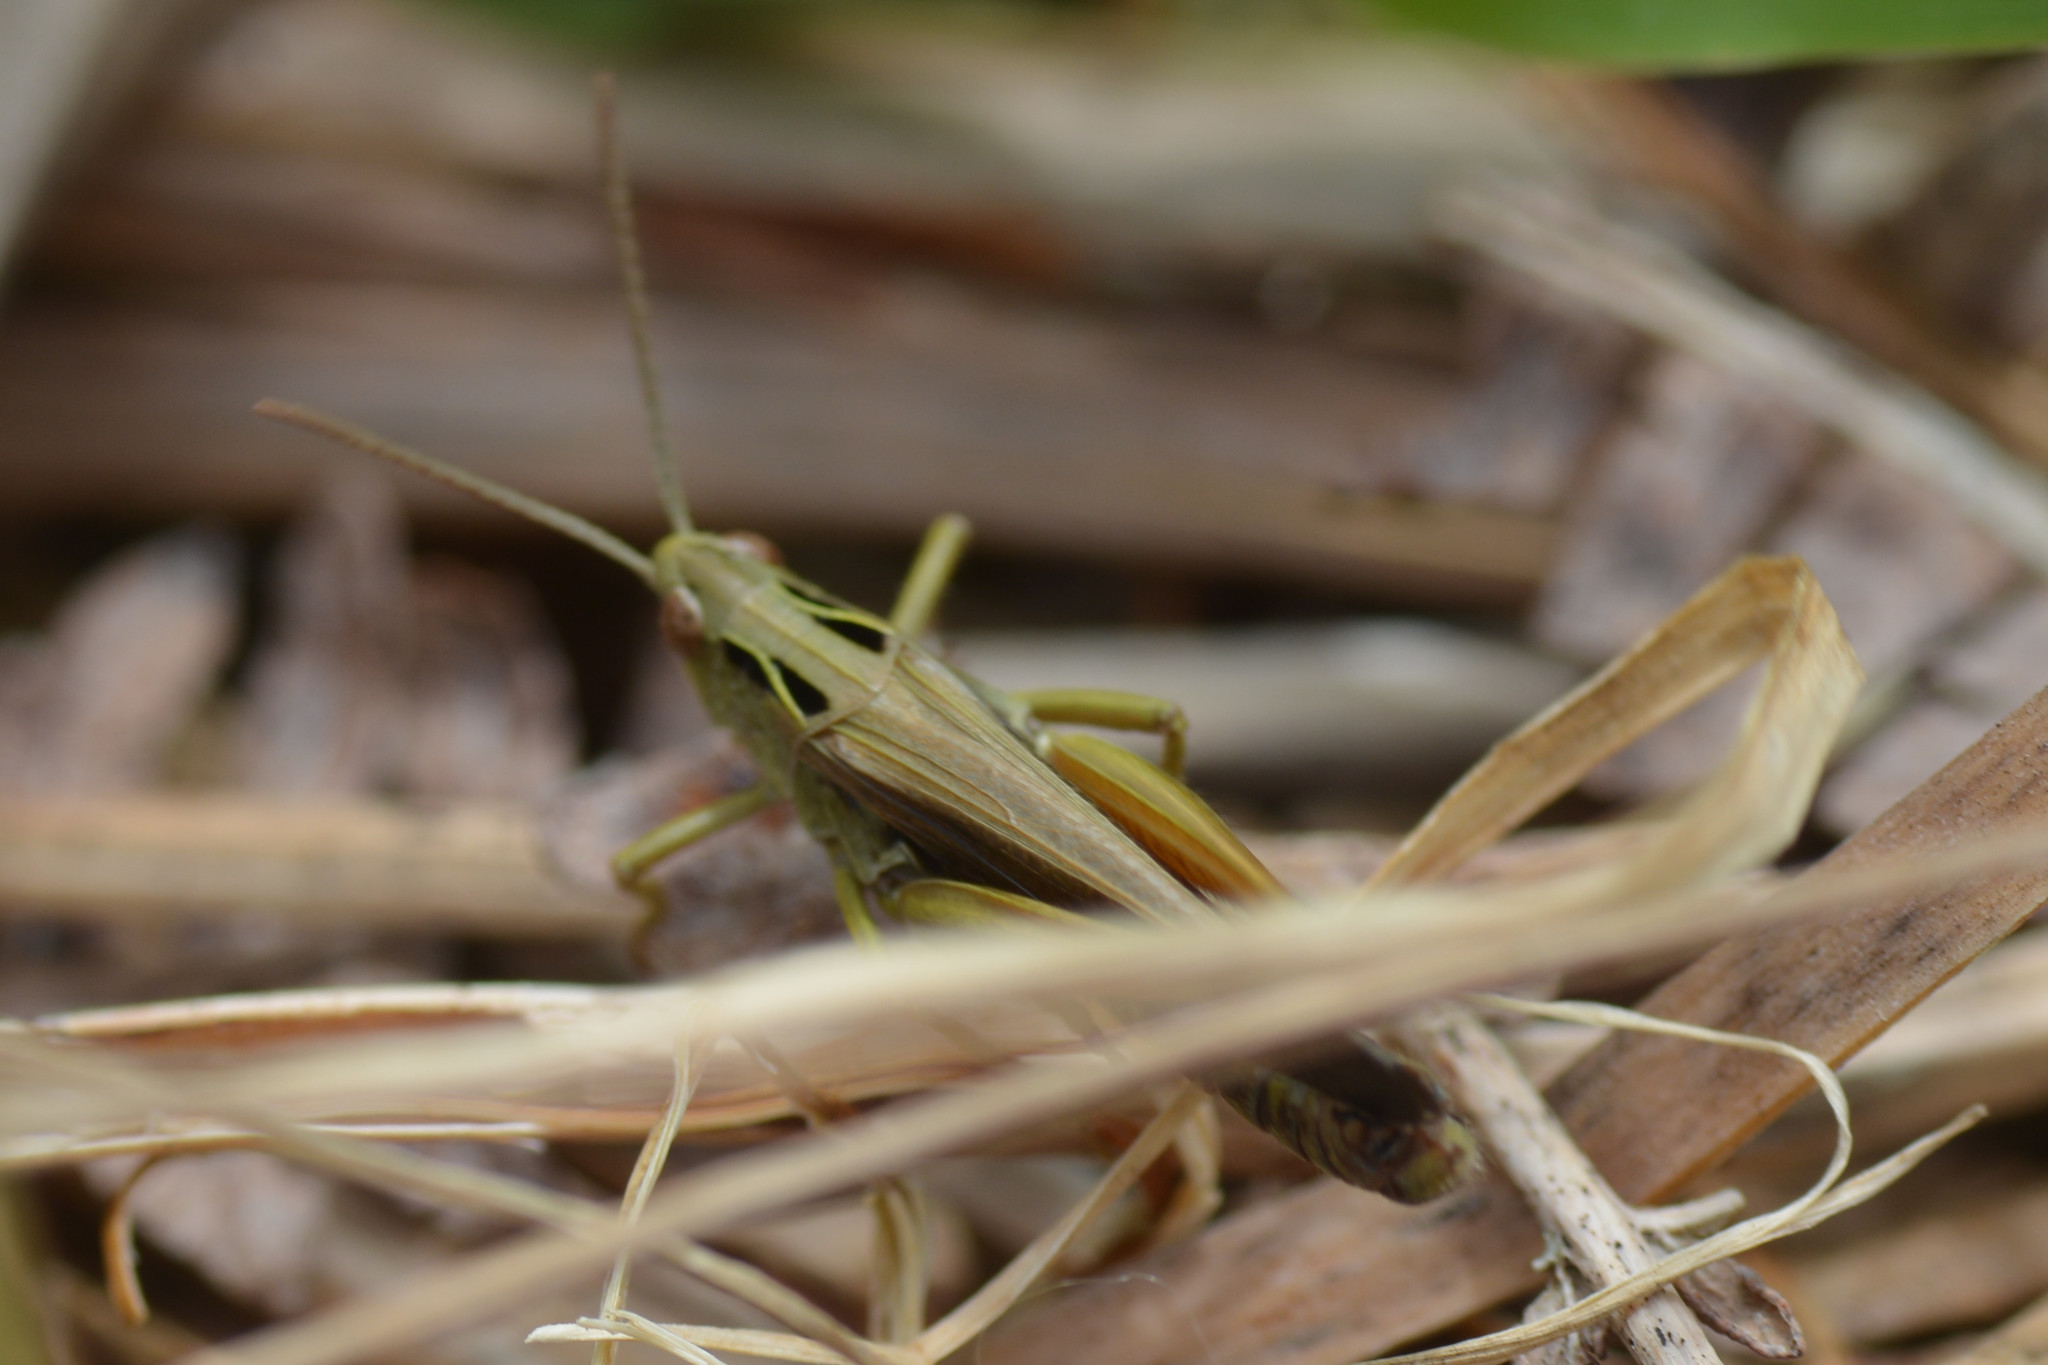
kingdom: Animalia
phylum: Arthropoda
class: Insecta
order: Orthoptera
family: Acrididae
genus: Omocestus
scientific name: Omocestus viridulus
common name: Common green grasshopper
